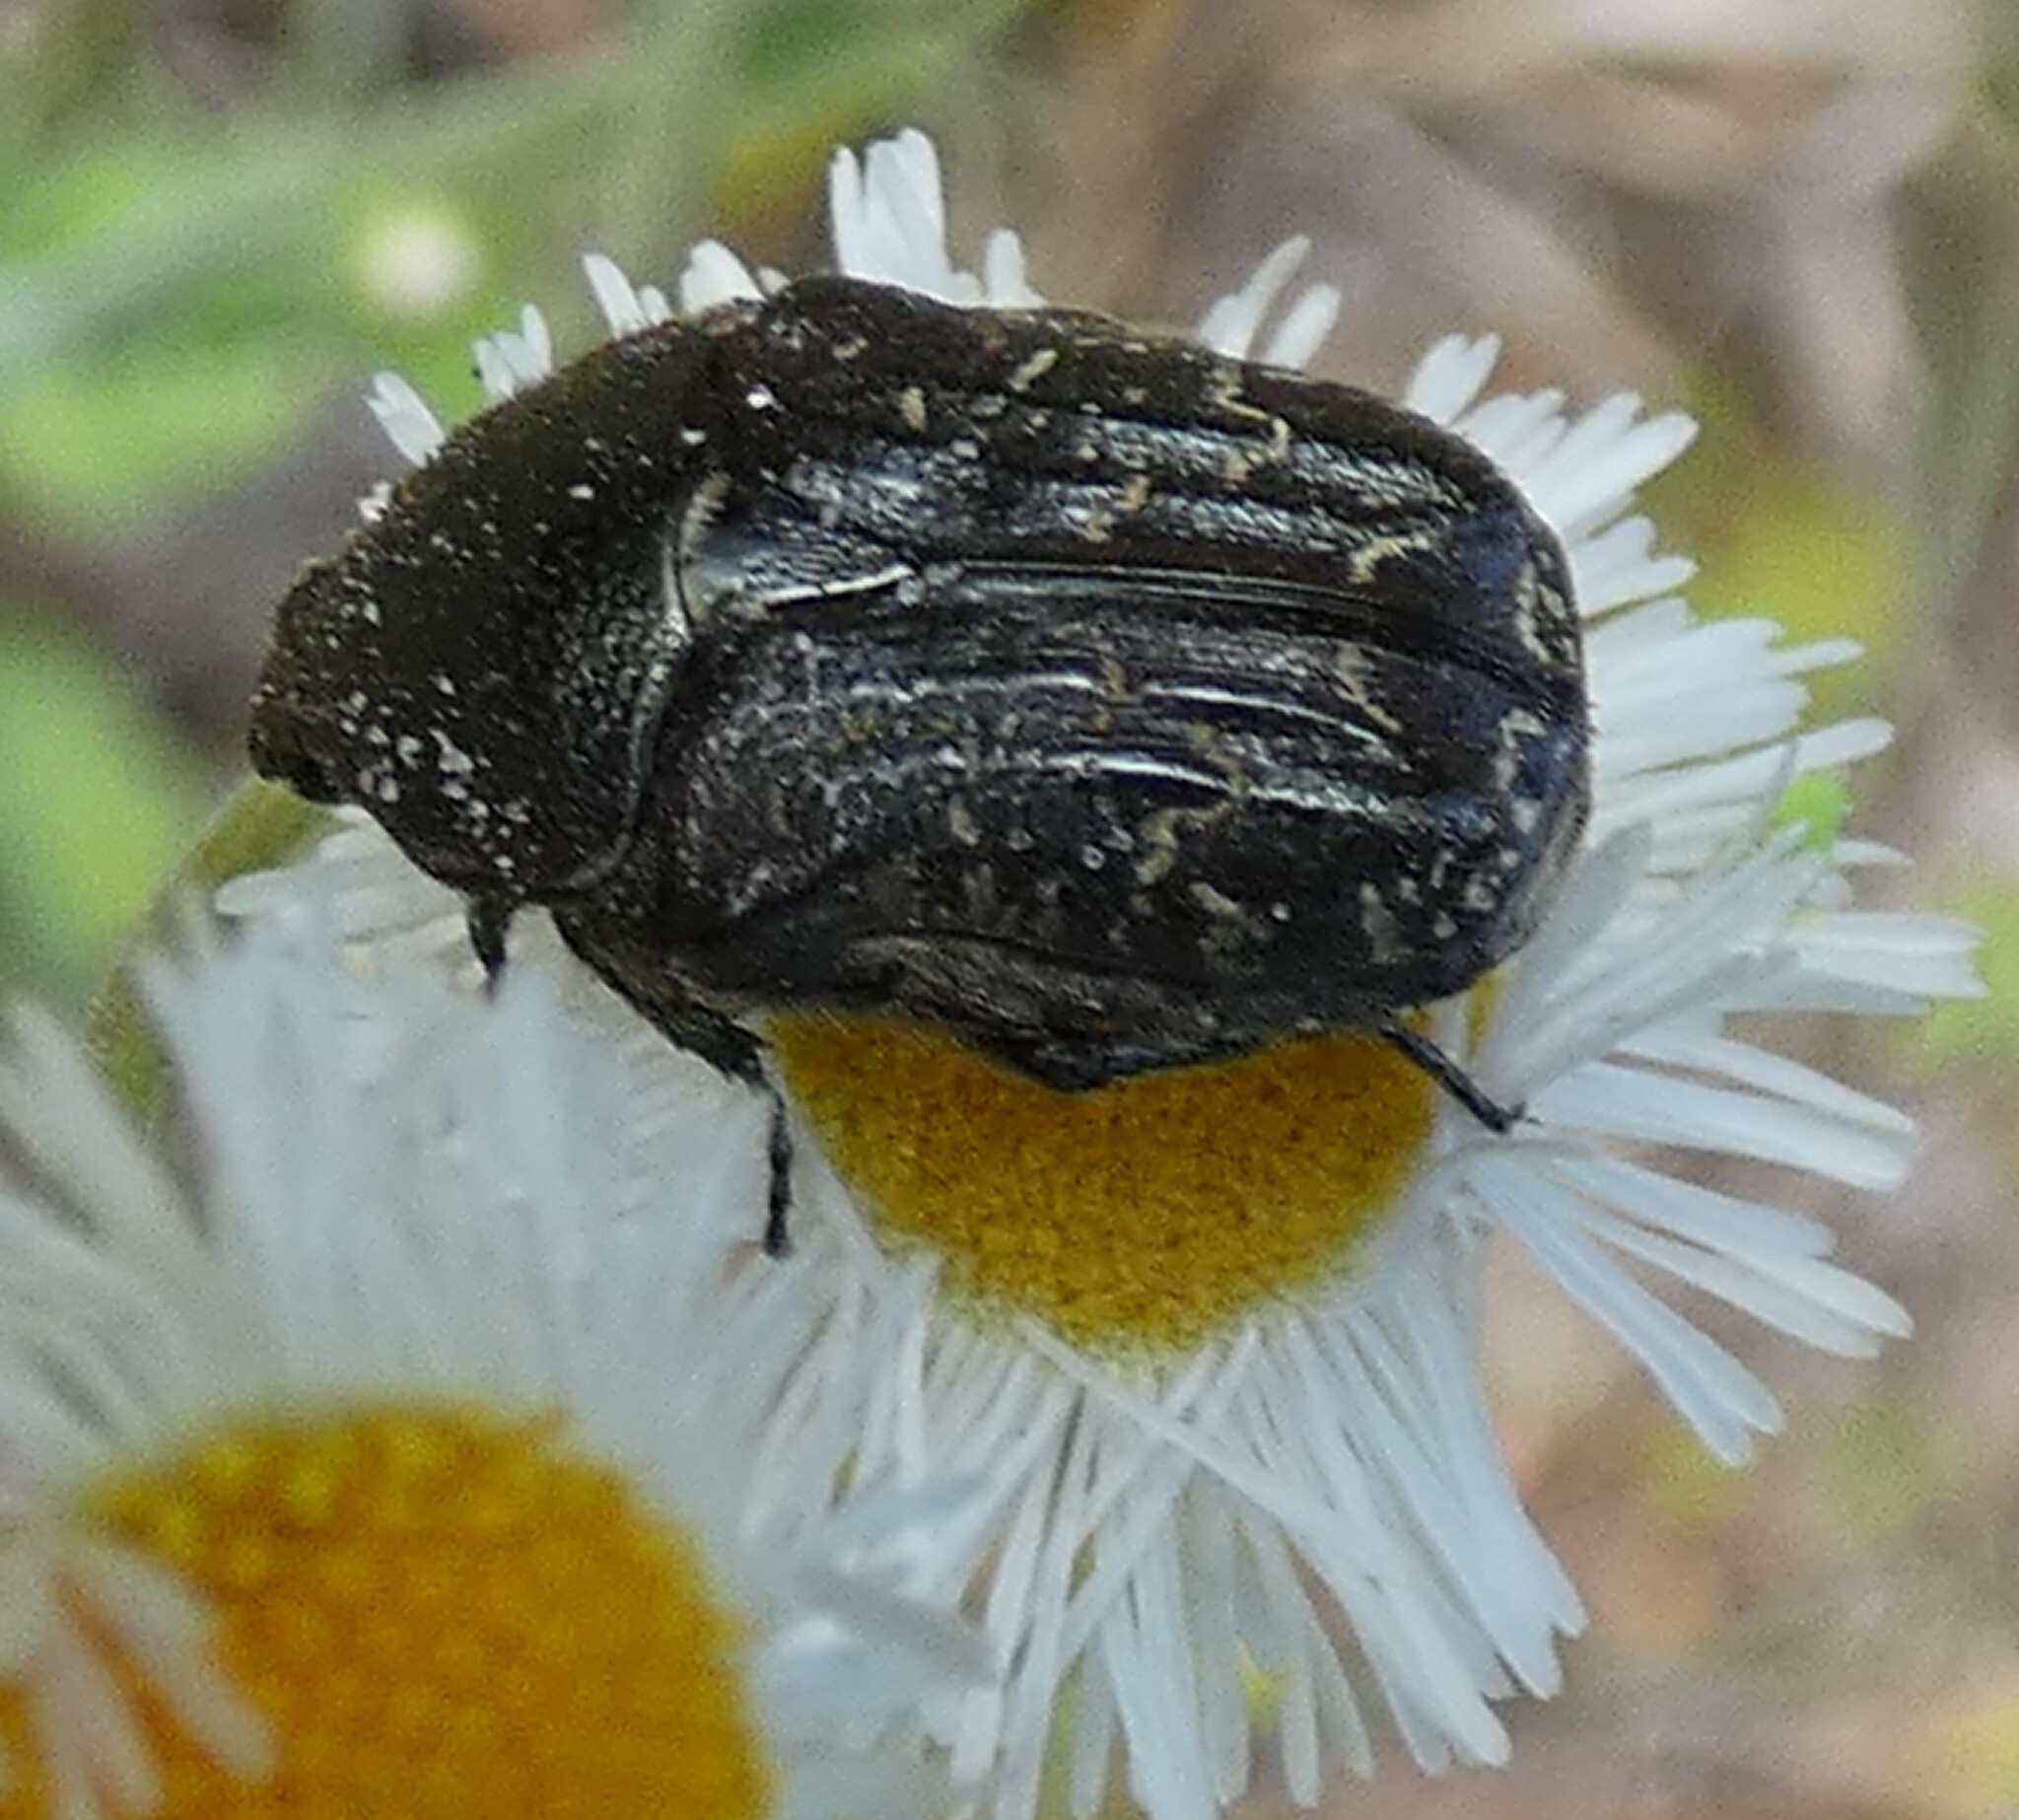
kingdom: Animalia
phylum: Arthropoda
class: Insecta
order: Coleoptera
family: Scarabaeidae
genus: Euphoria
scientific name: Euphoria sepulcralis
